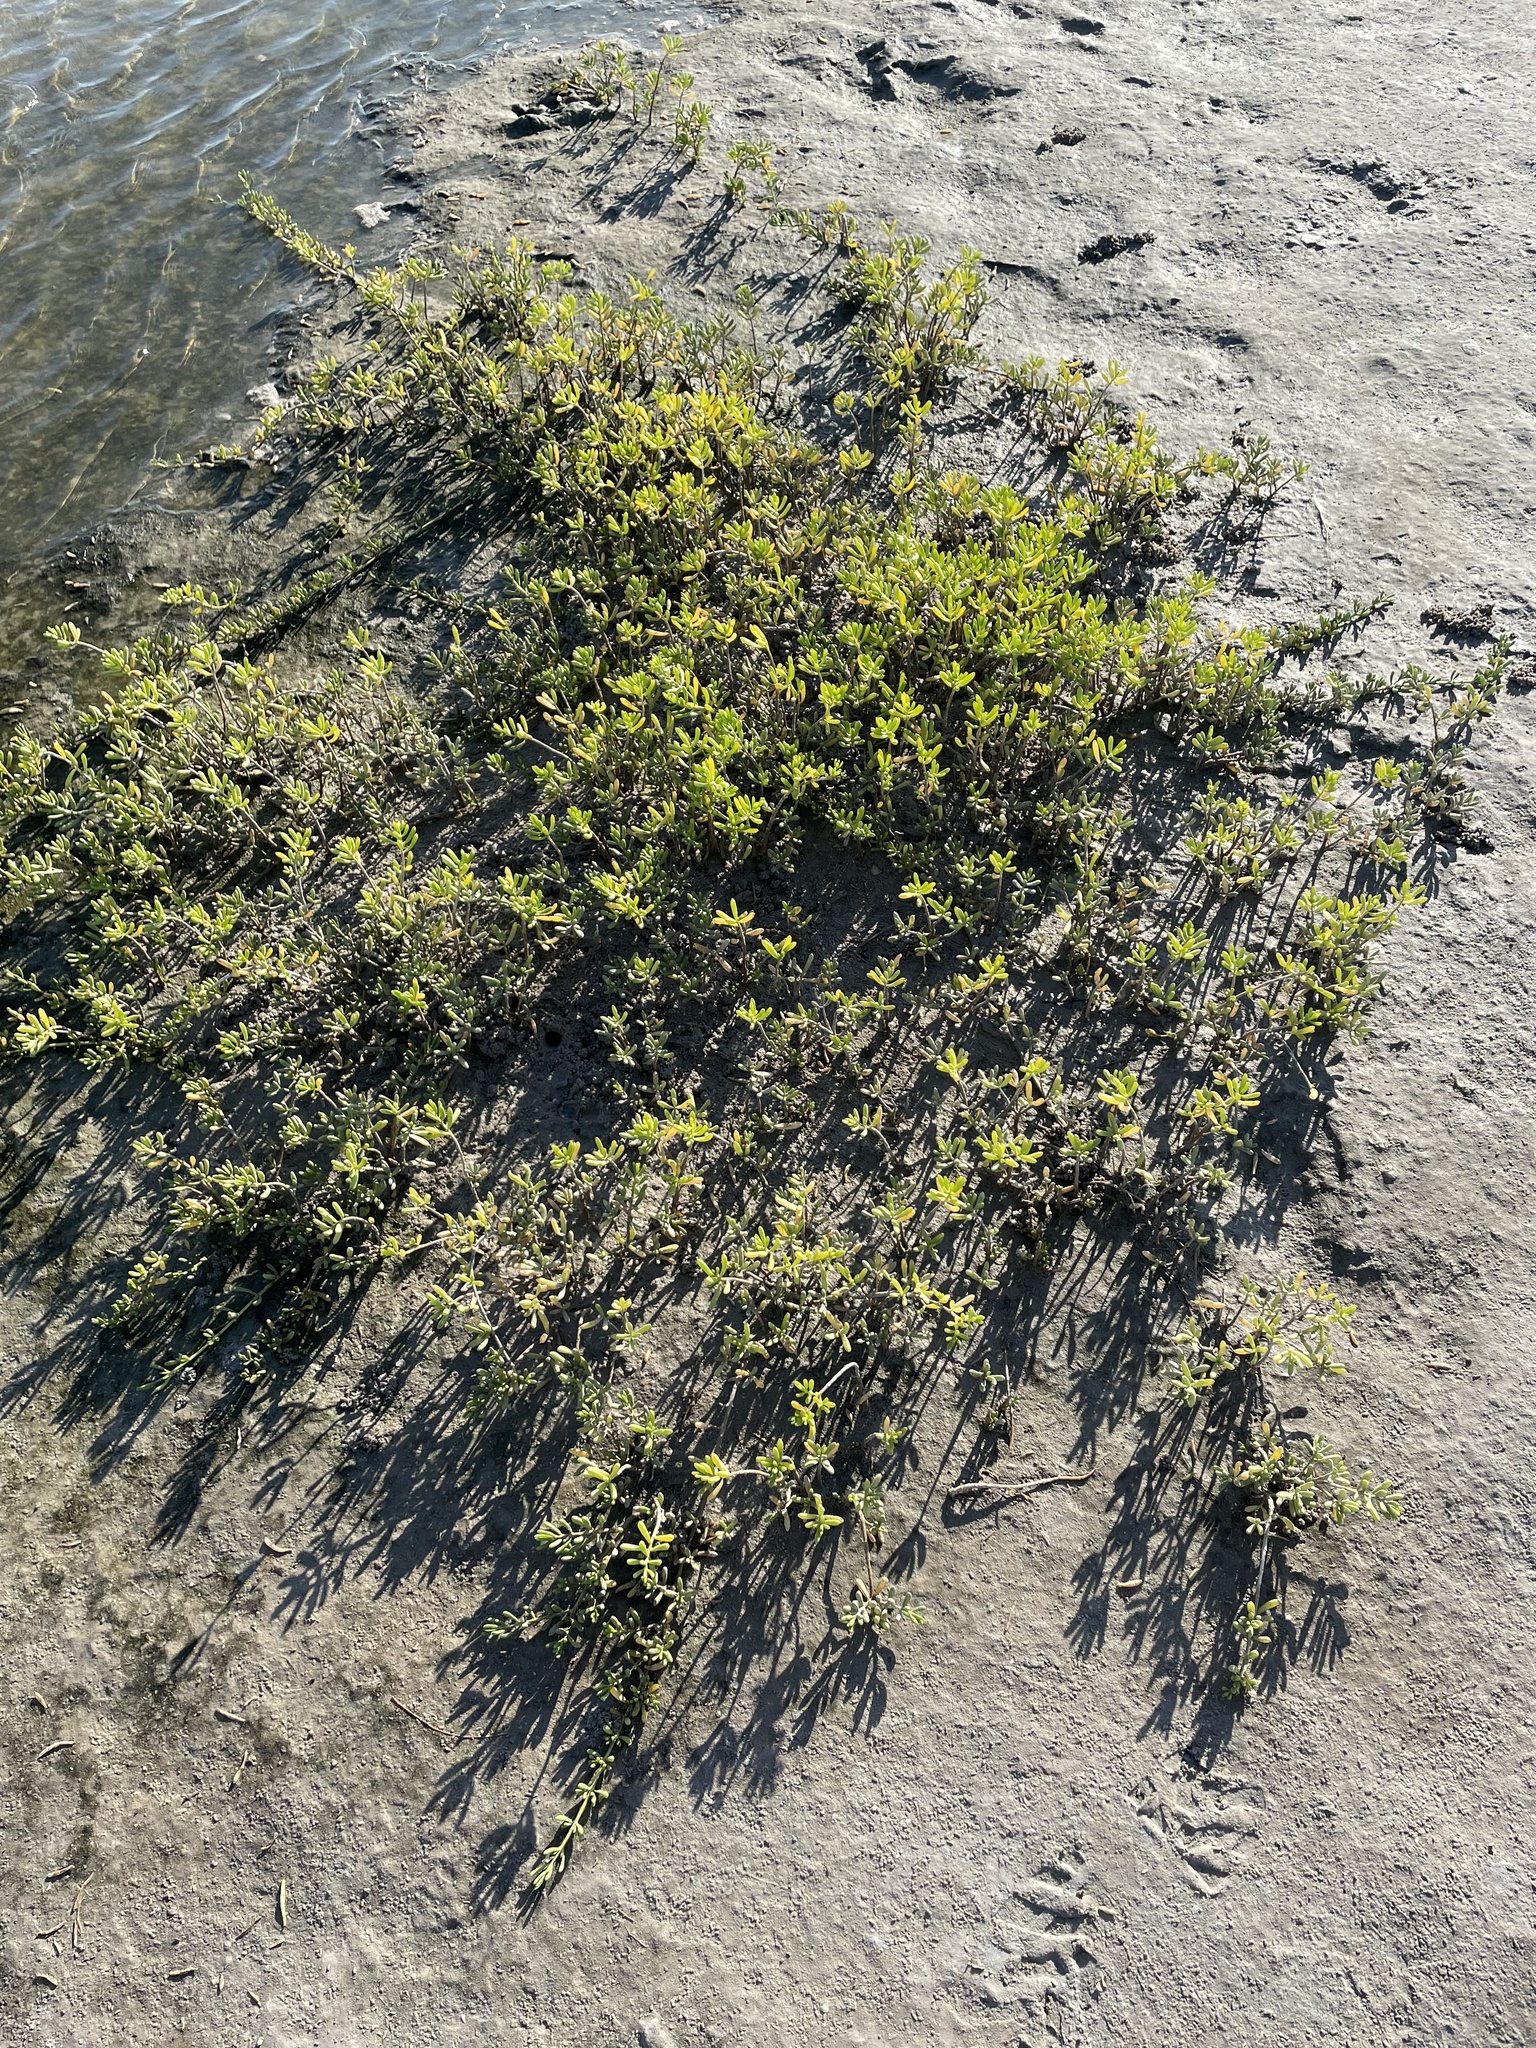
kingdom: Plantae
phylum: Tracheophyta
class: Magnoliopsida
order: Brassicales
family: Bataceae
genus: Batis
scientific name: Batis maritima
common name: Turtleweed
